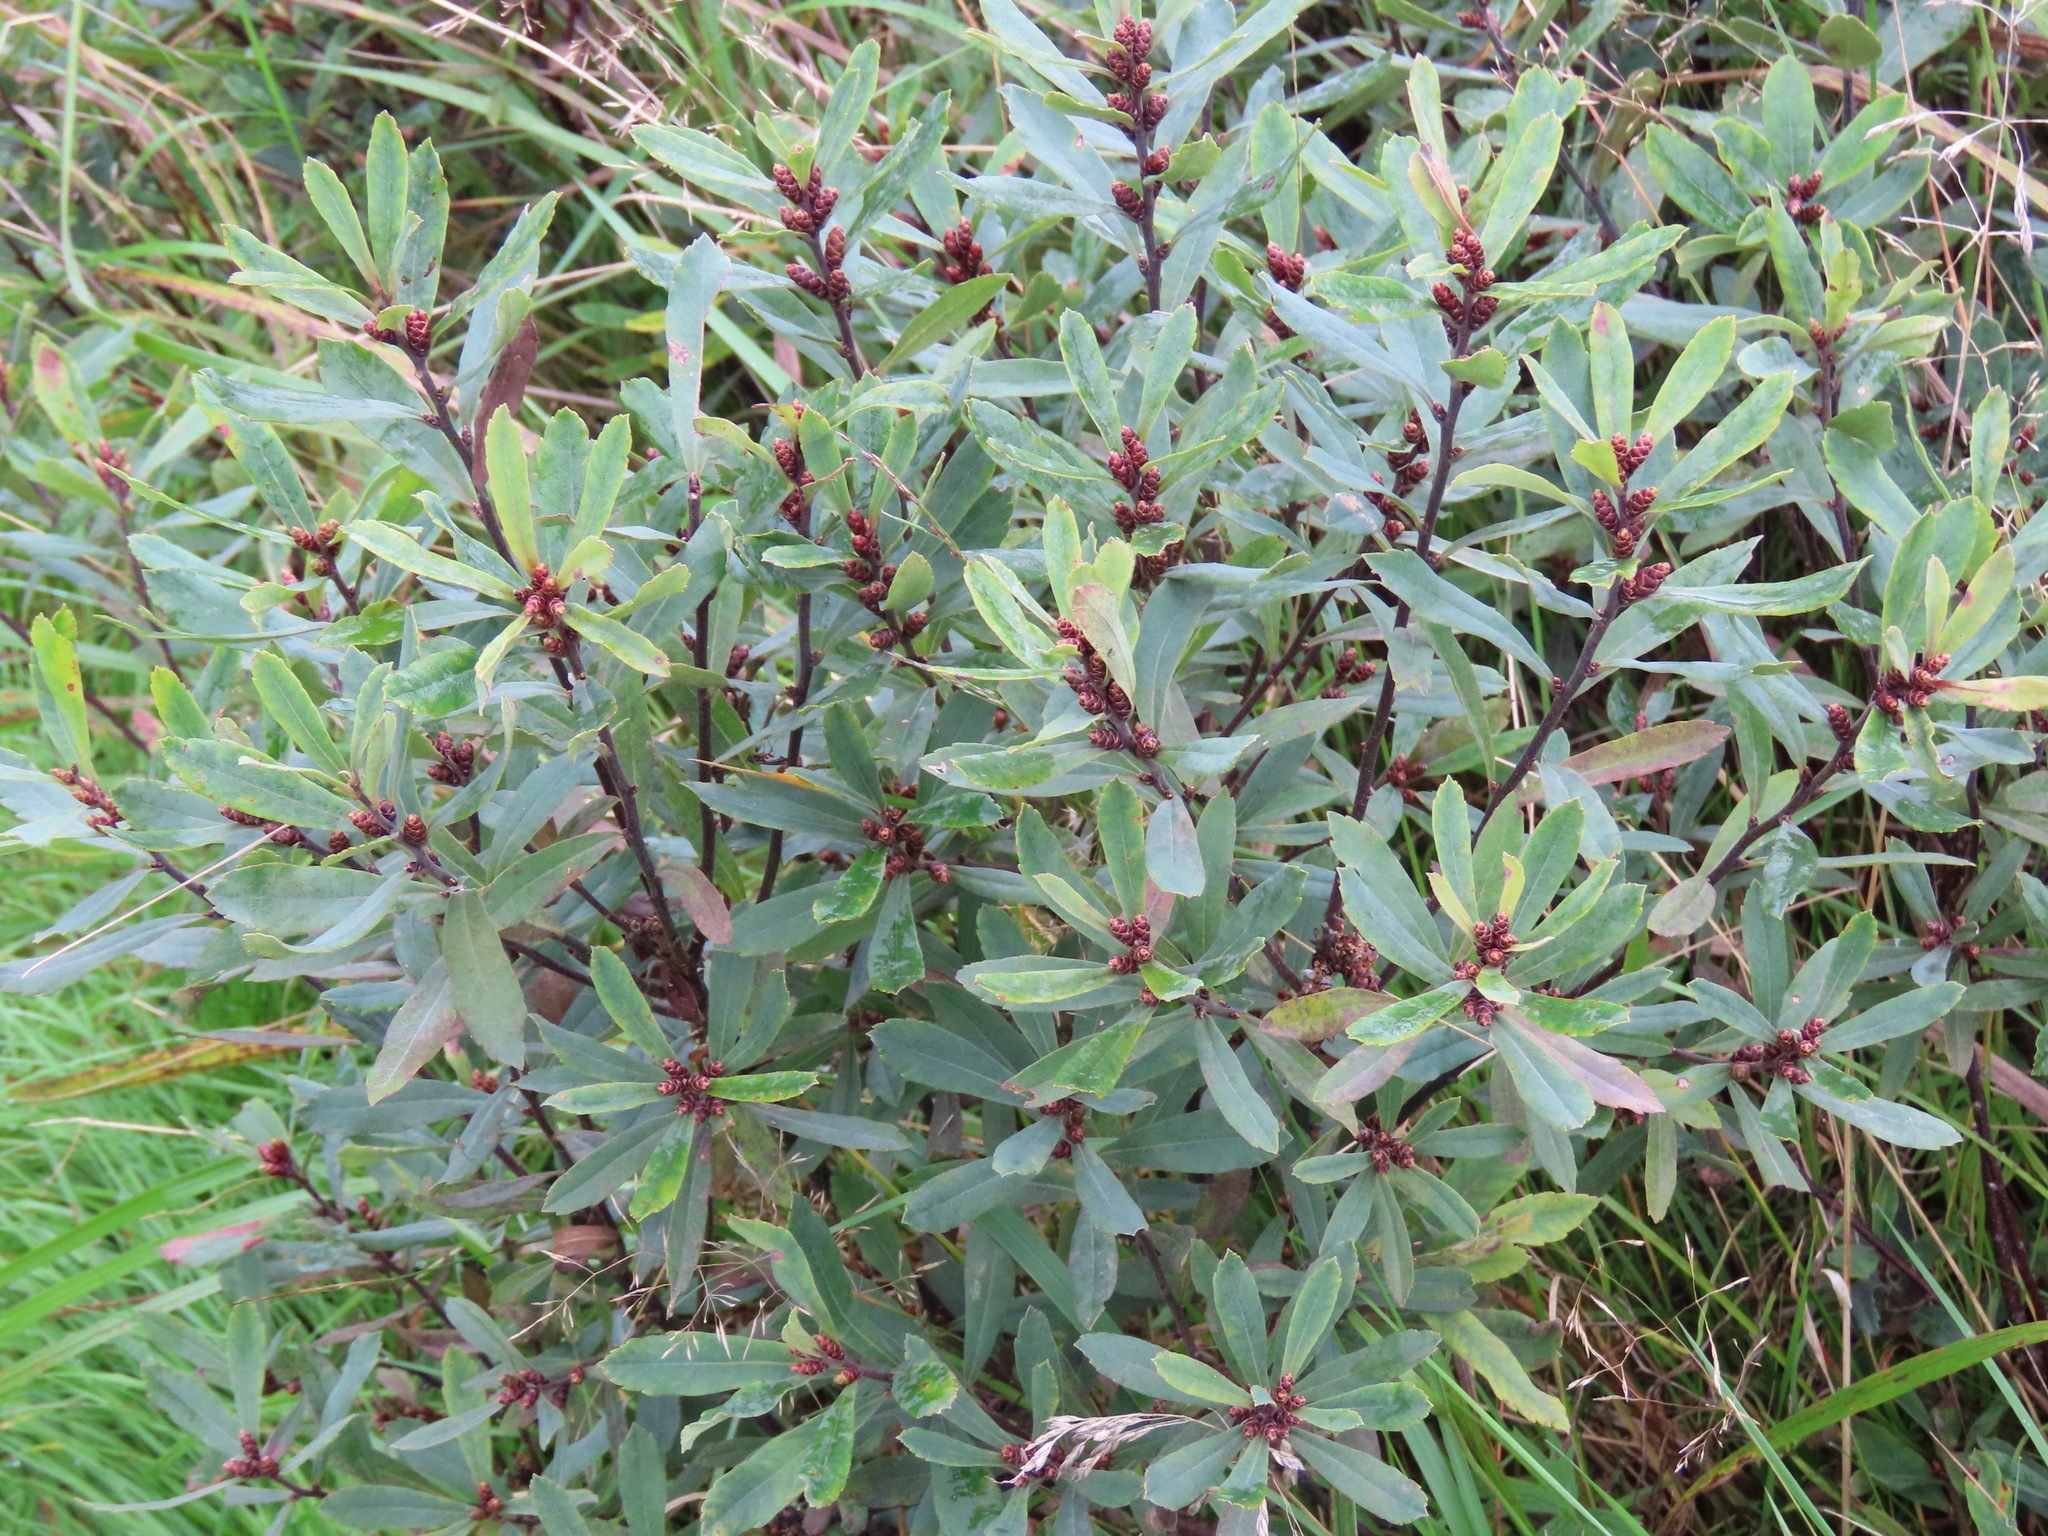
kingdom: Plantae
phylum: Tracheophyta
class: Magnoliopsida
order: Fagales
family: Myricaceae
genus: Myrica
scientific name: Myrica gale
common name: Sweet gale
